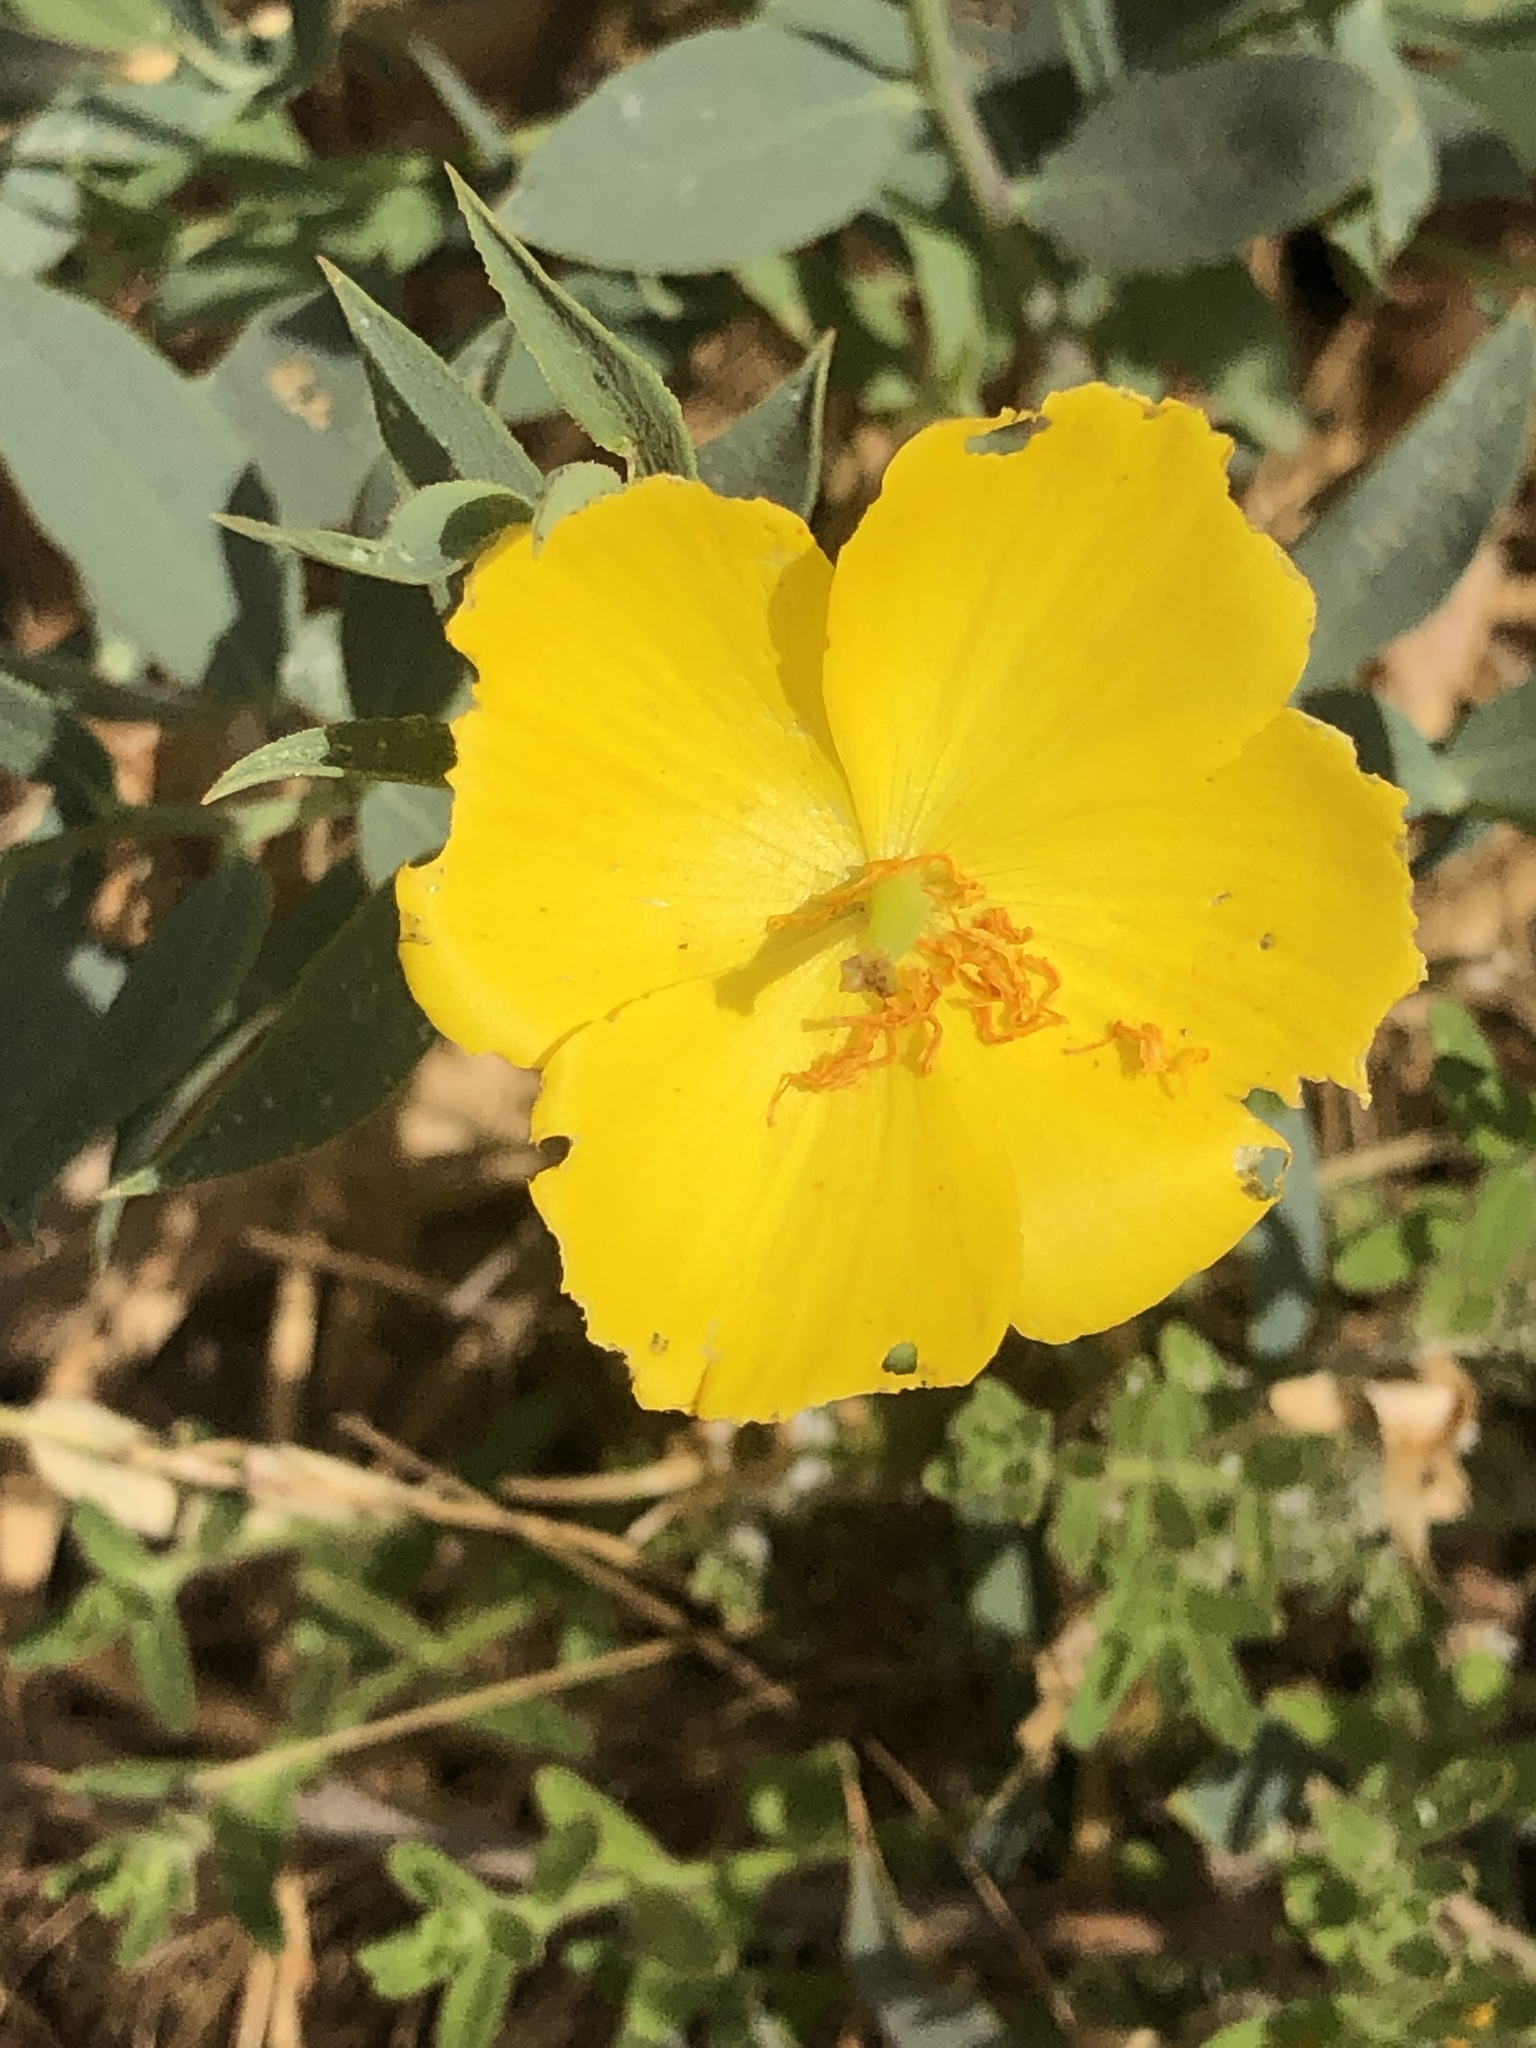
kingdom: Plantae
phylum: Tracheophyta
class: Magnoliopsida
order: Ranunculales
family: Papaveraceae
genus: Dendromecon
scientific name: Dendromecon rigida
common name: Tree poppy
